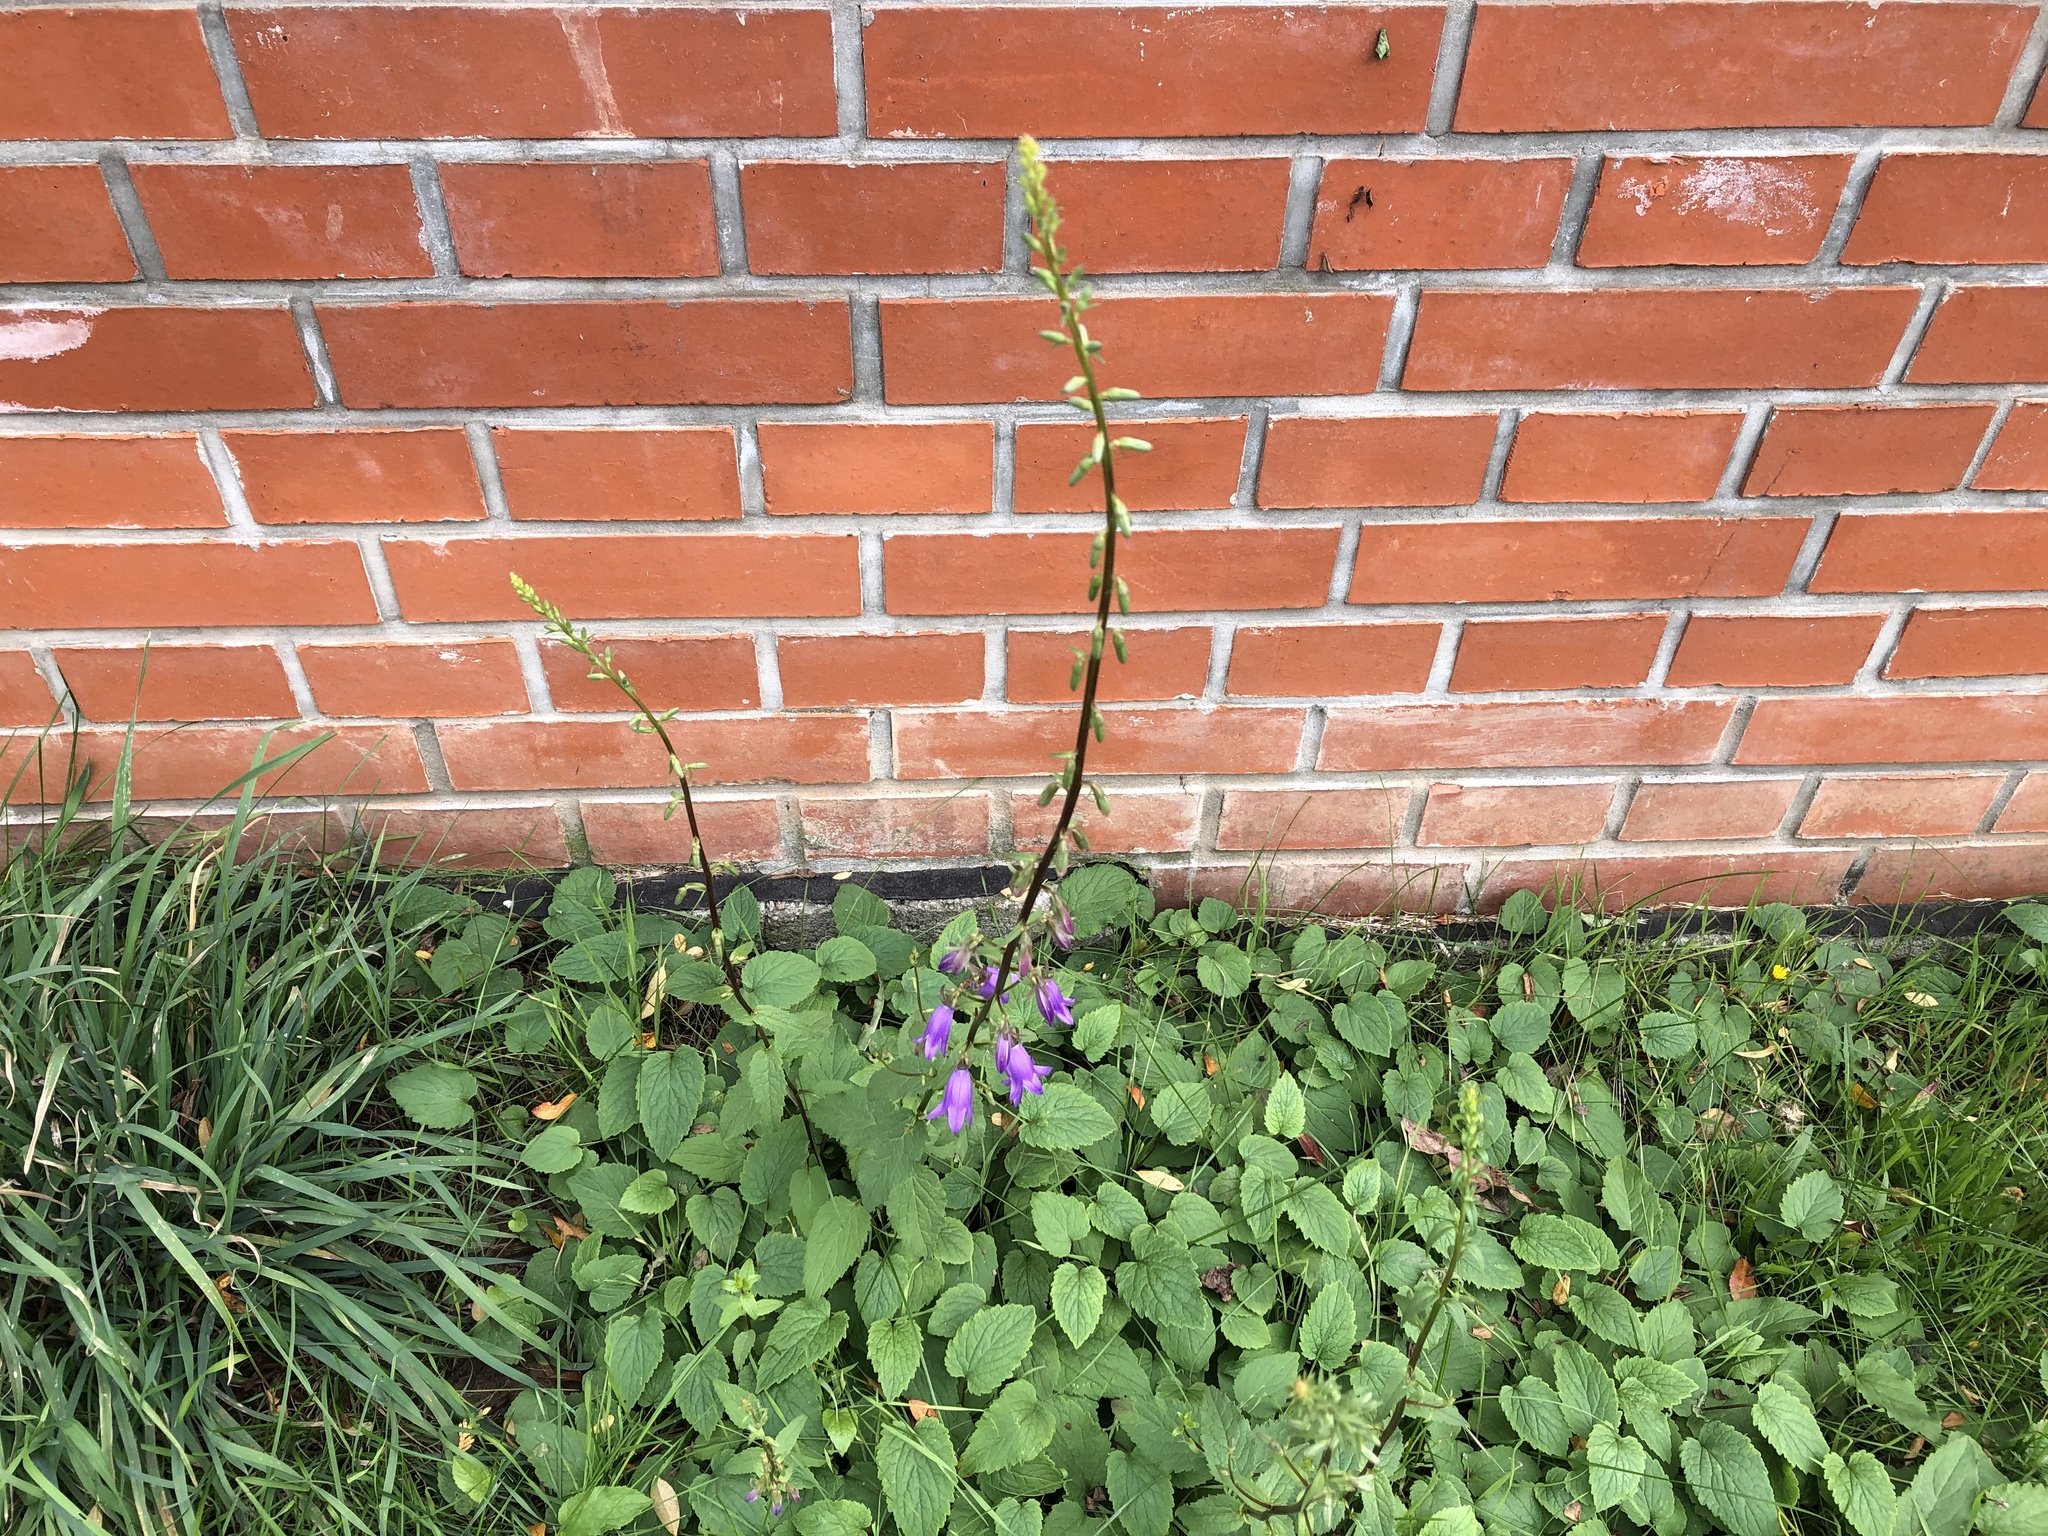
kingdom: Plantae
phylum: Tracheophyta
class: Magnoliopsida
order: Asterales
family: Campanulaceae
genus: Campanula
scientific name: Campanula rapunculoides
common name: Creeping bellflower
